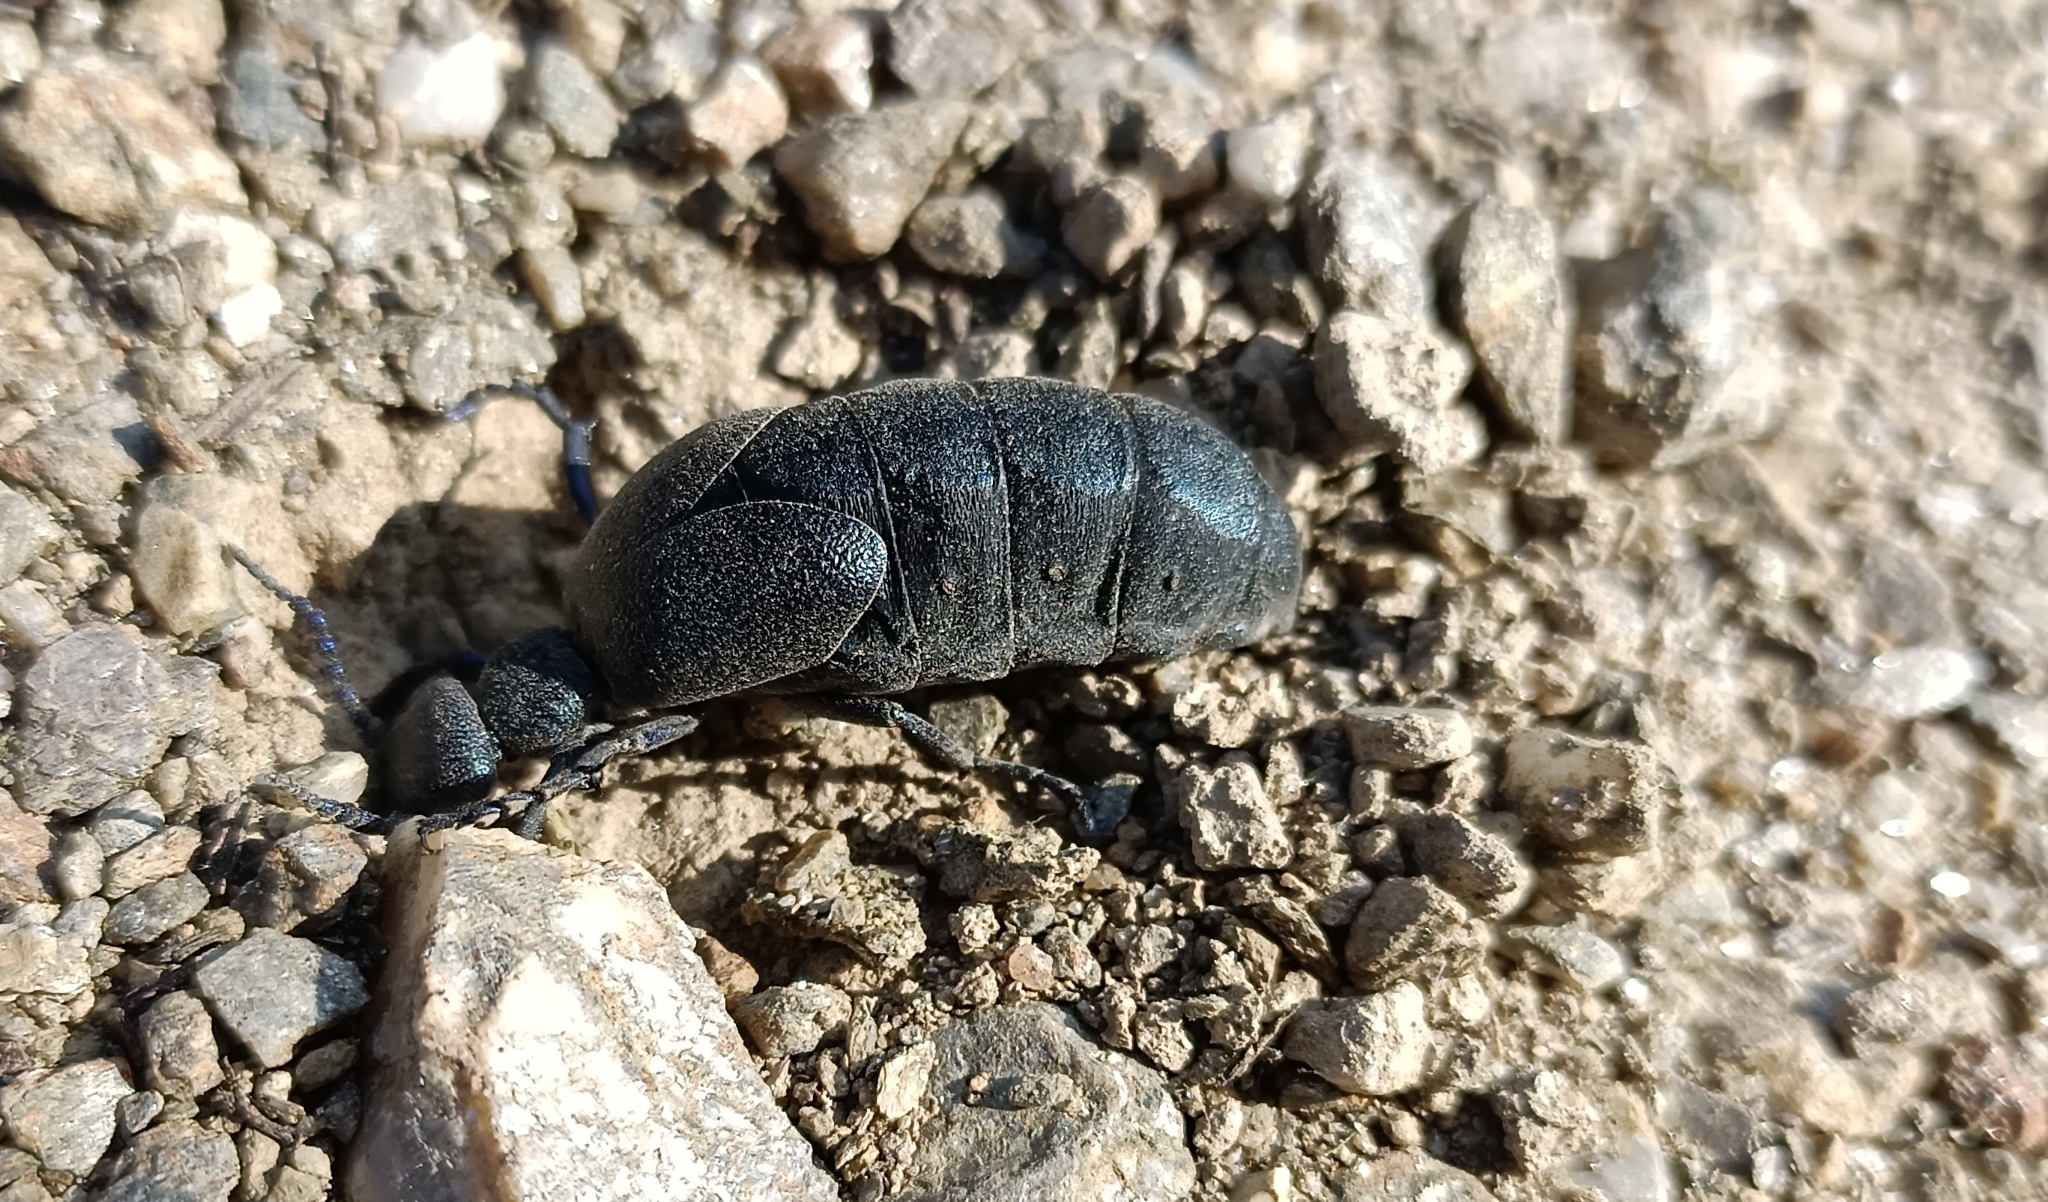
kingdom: Animalia
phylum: Arthropoda
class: Insecta
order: Coleoptera
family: Meloidae
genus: Meloe
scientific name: Meloe proscarabaeus
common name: Black oil-beetle
